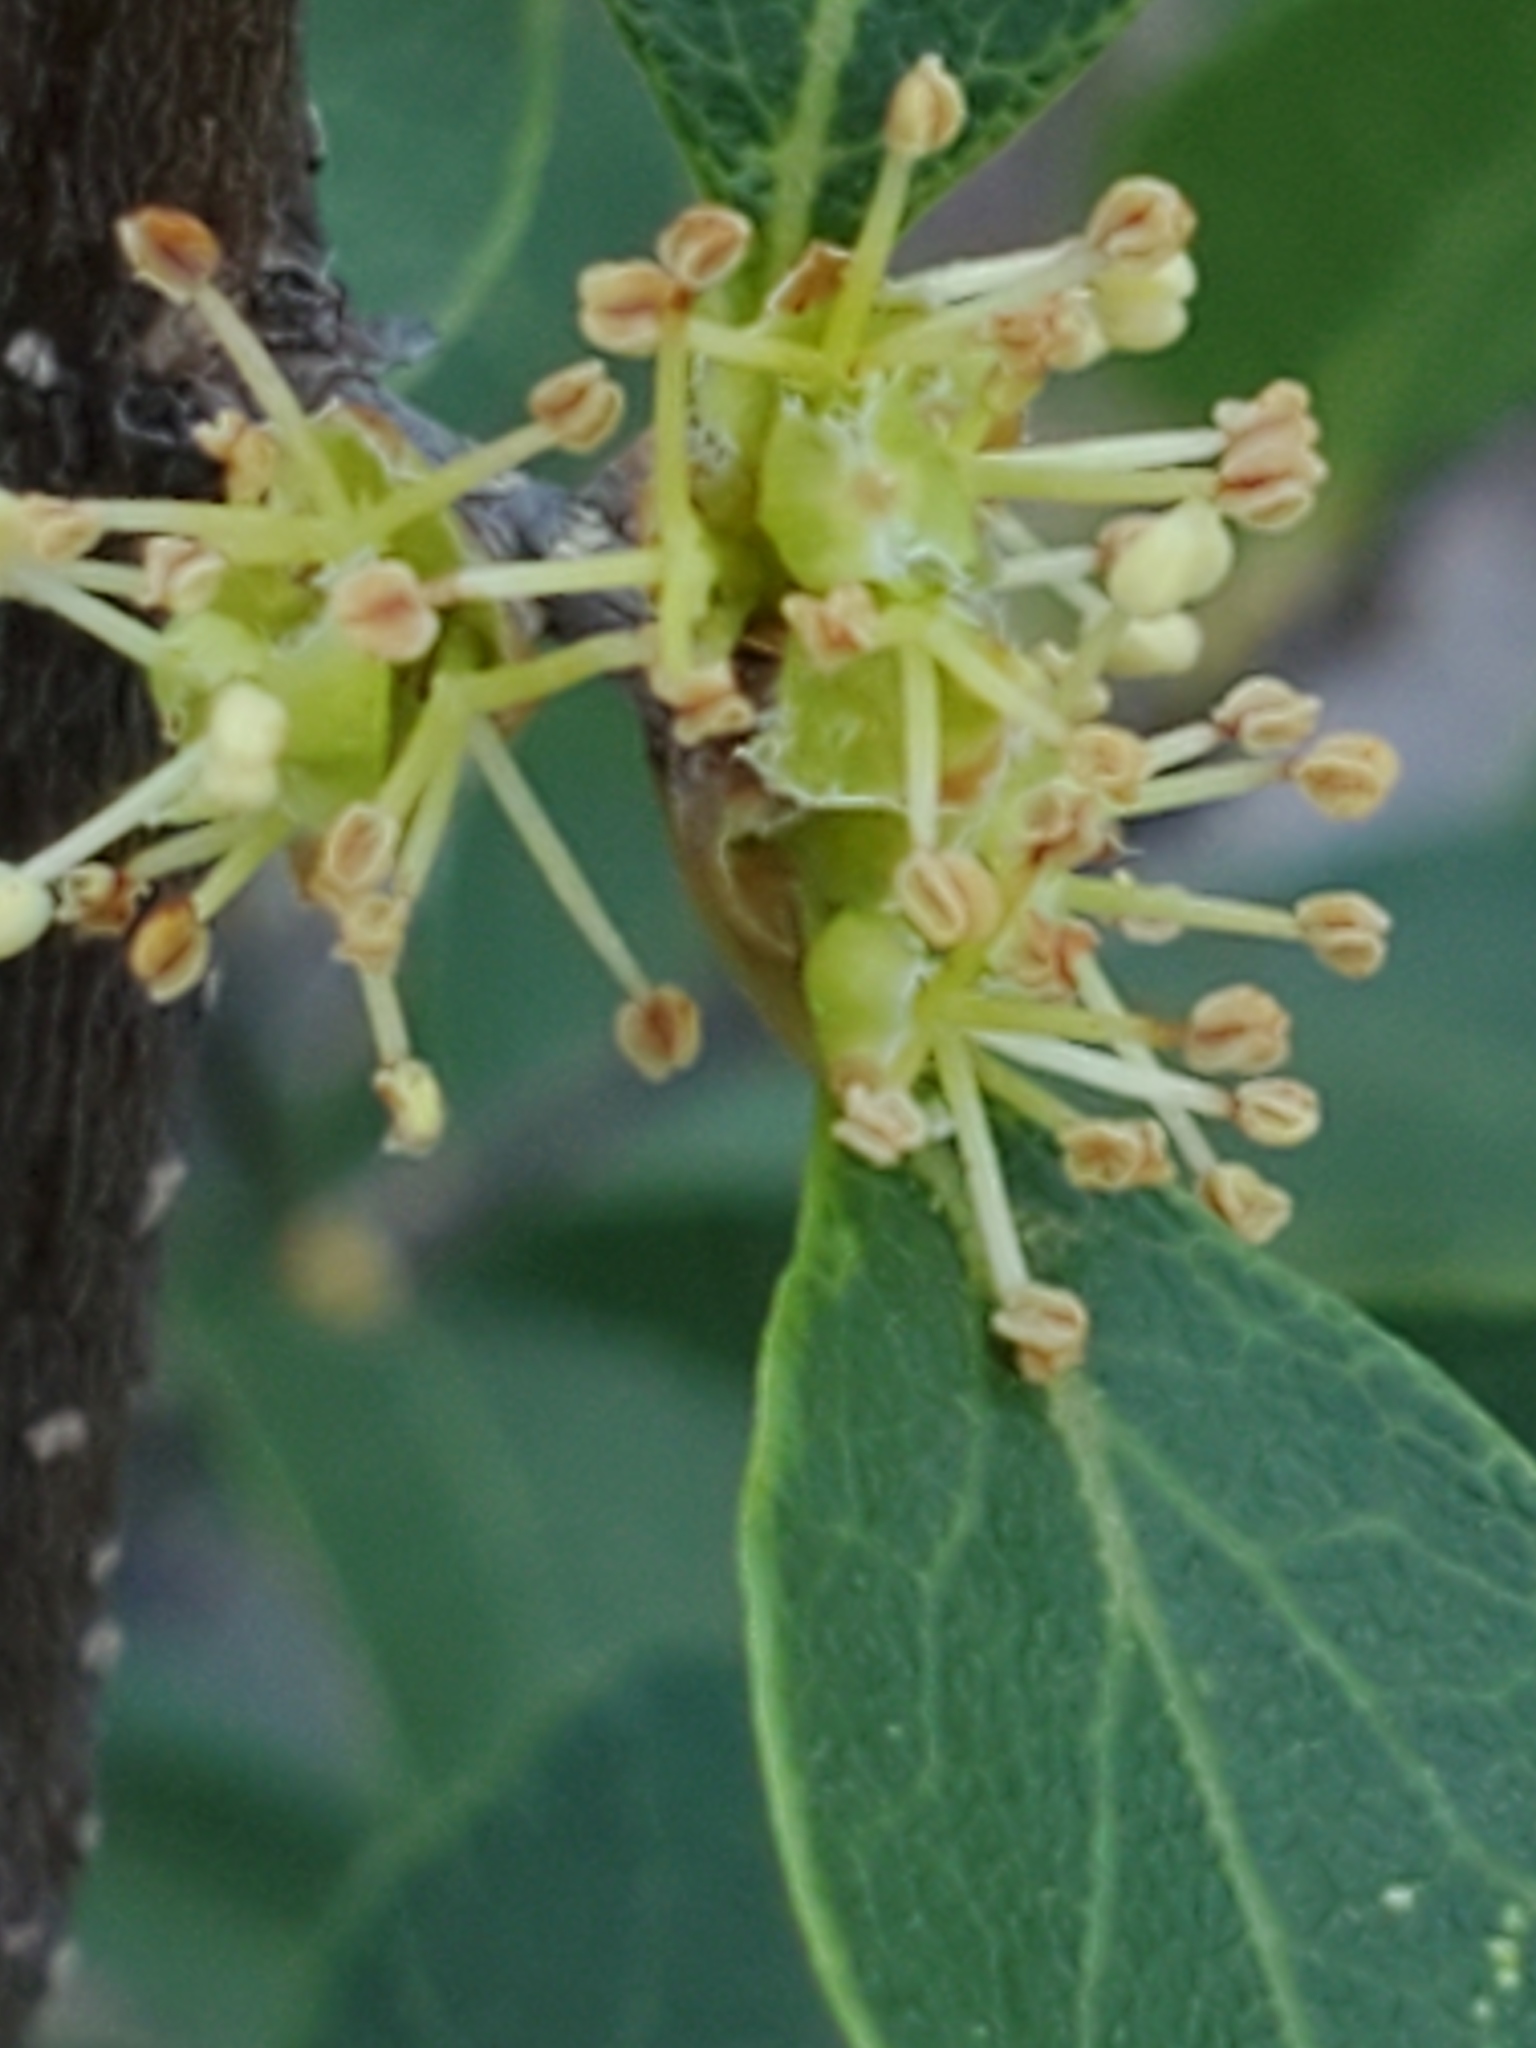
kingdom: Plantae
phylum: Tracheophyta
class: Magnoliopsida
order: Lamiales
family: Oleaceae
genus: Forestiera
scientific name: Forestiera reticulata
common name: Netleaf swamp-privet
